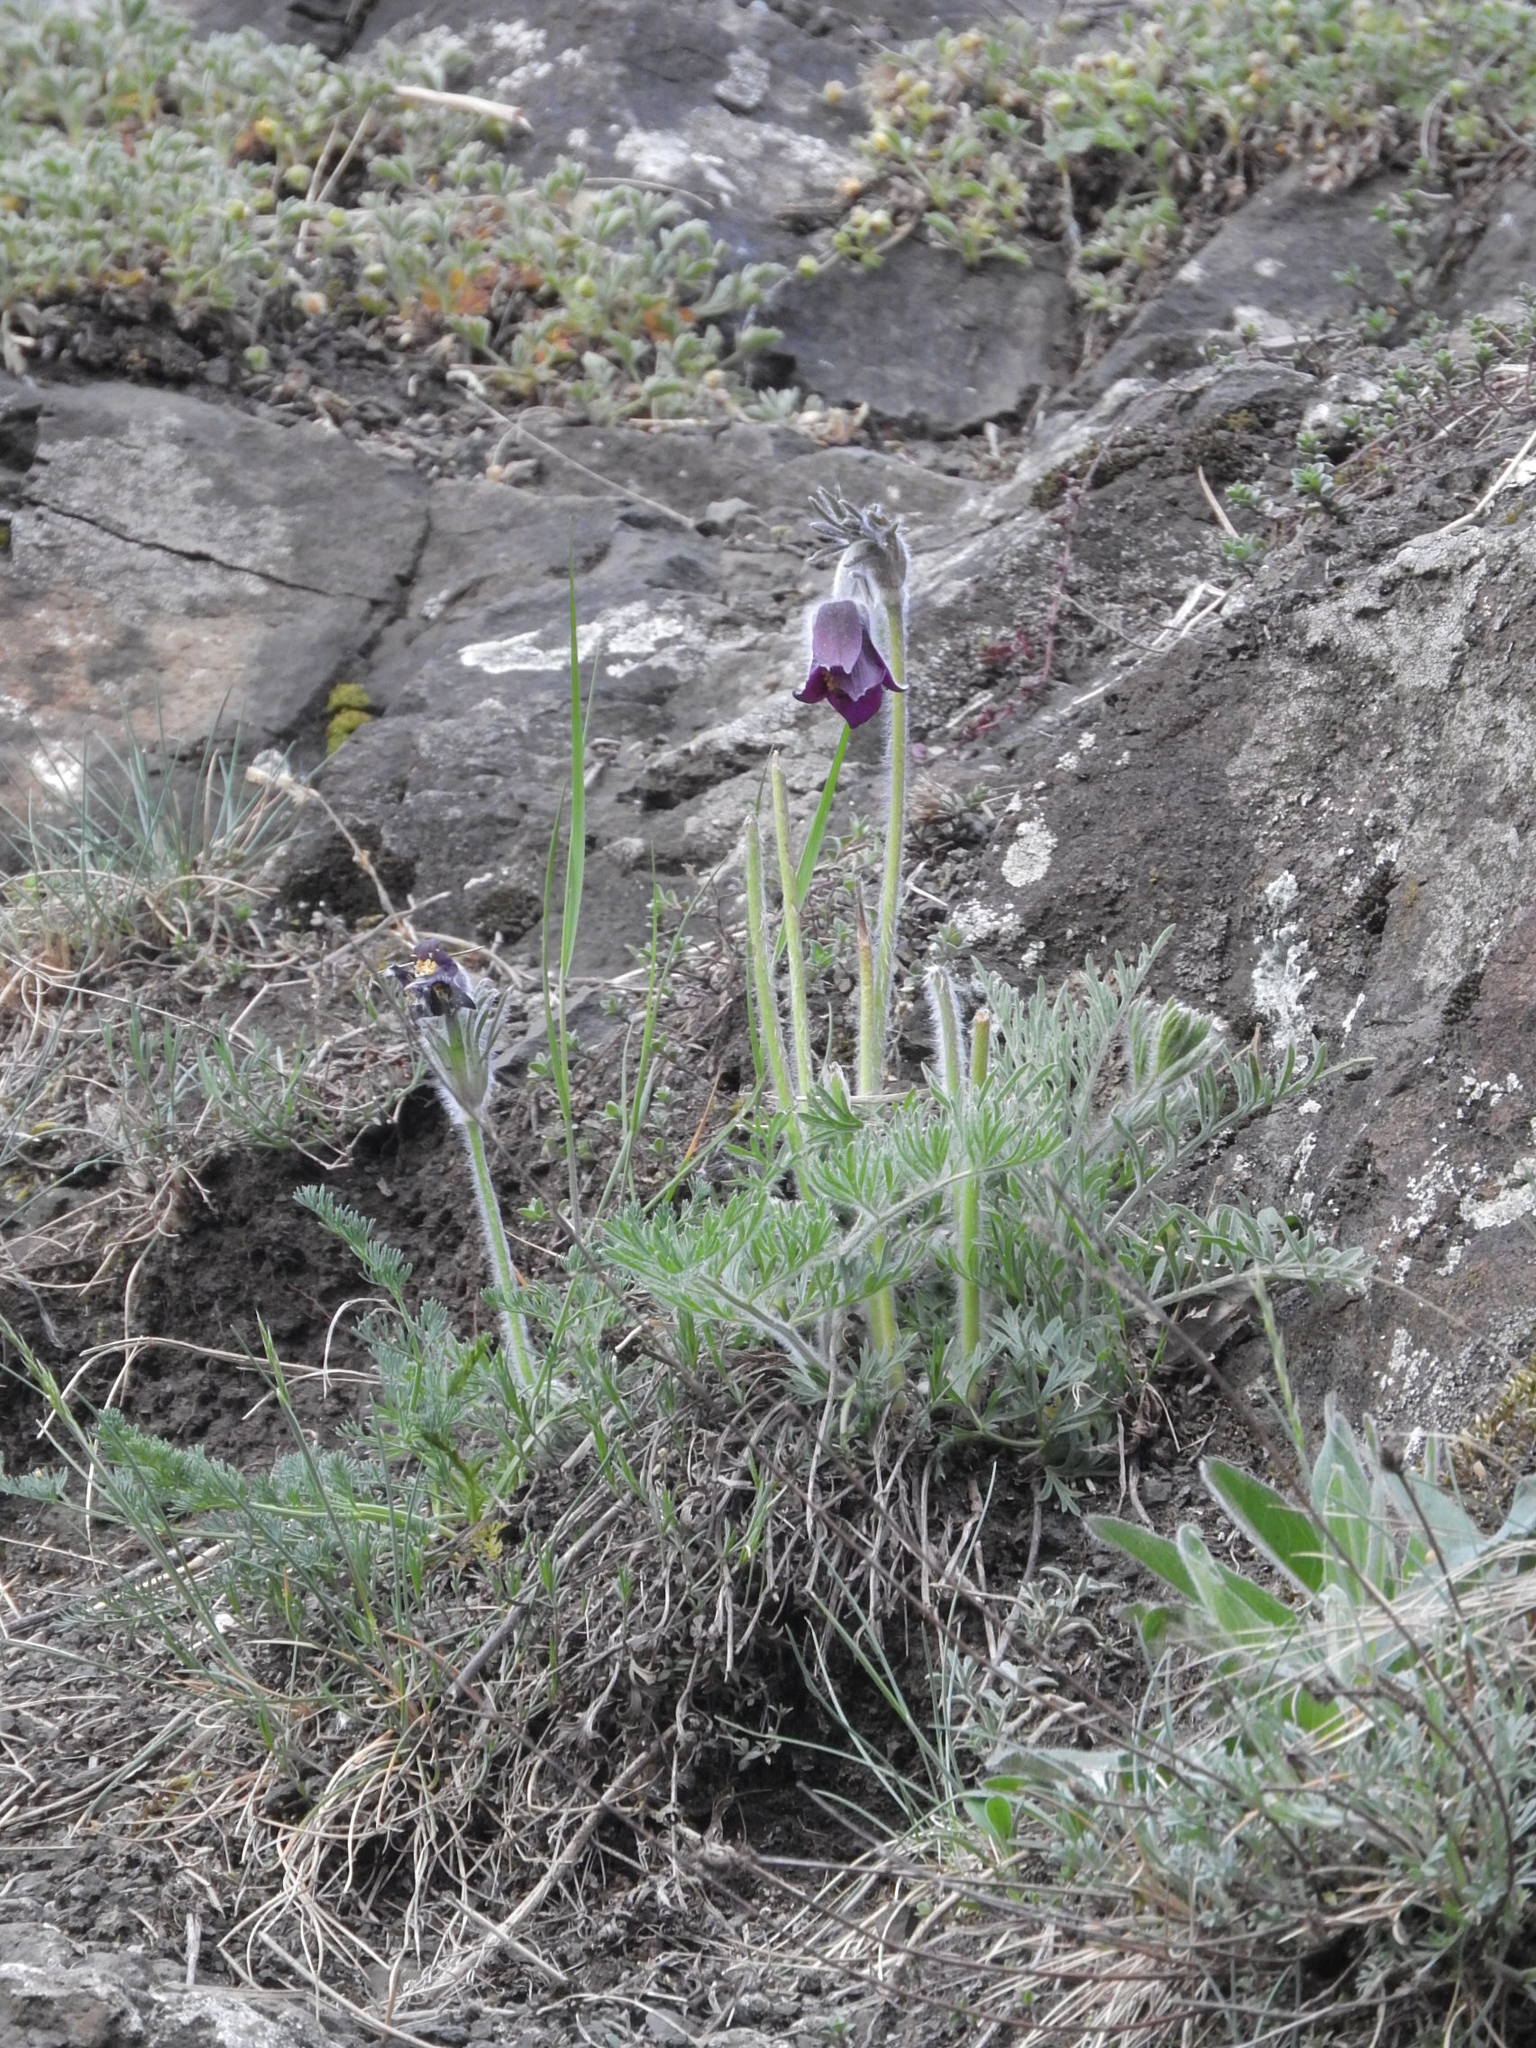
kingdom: Plantae
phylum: Tracheophyta
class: Magnoliopsida
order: Ranunculales
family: Ranunculaceae
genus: Pulsatilla
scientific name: Pulsatilla pratensis
